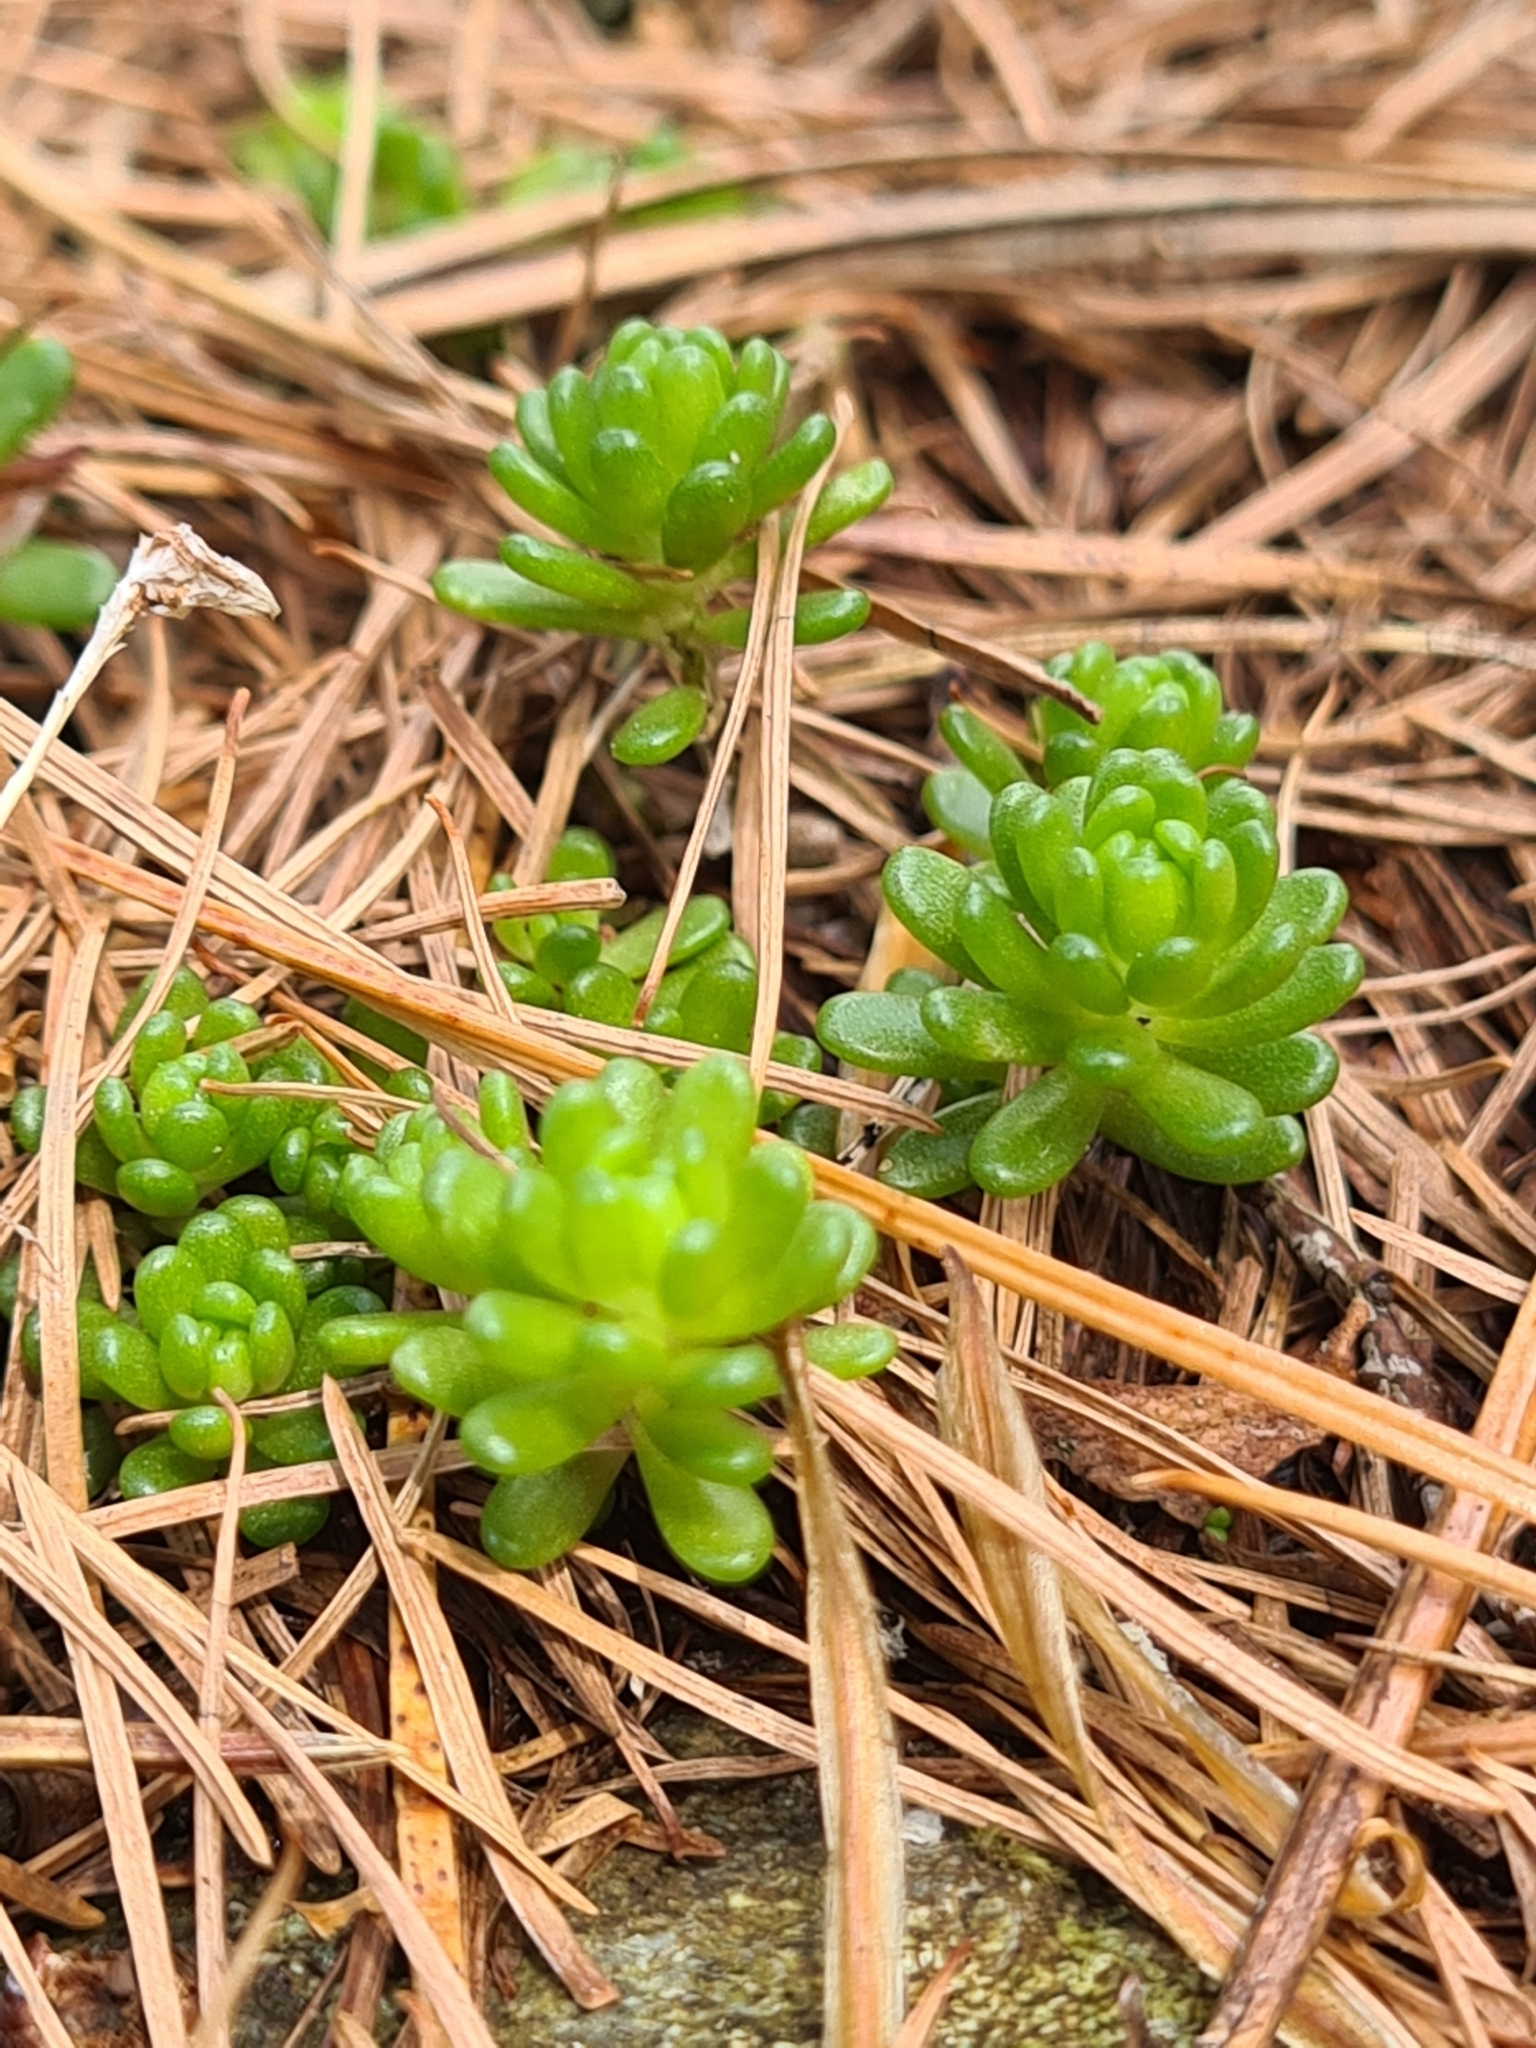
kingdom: Plantae
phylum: Tracheophyta
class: Magnoliopsida
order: Saxifragales
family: Crassulaceae
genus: Sedum
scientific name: Sedum alpestre
